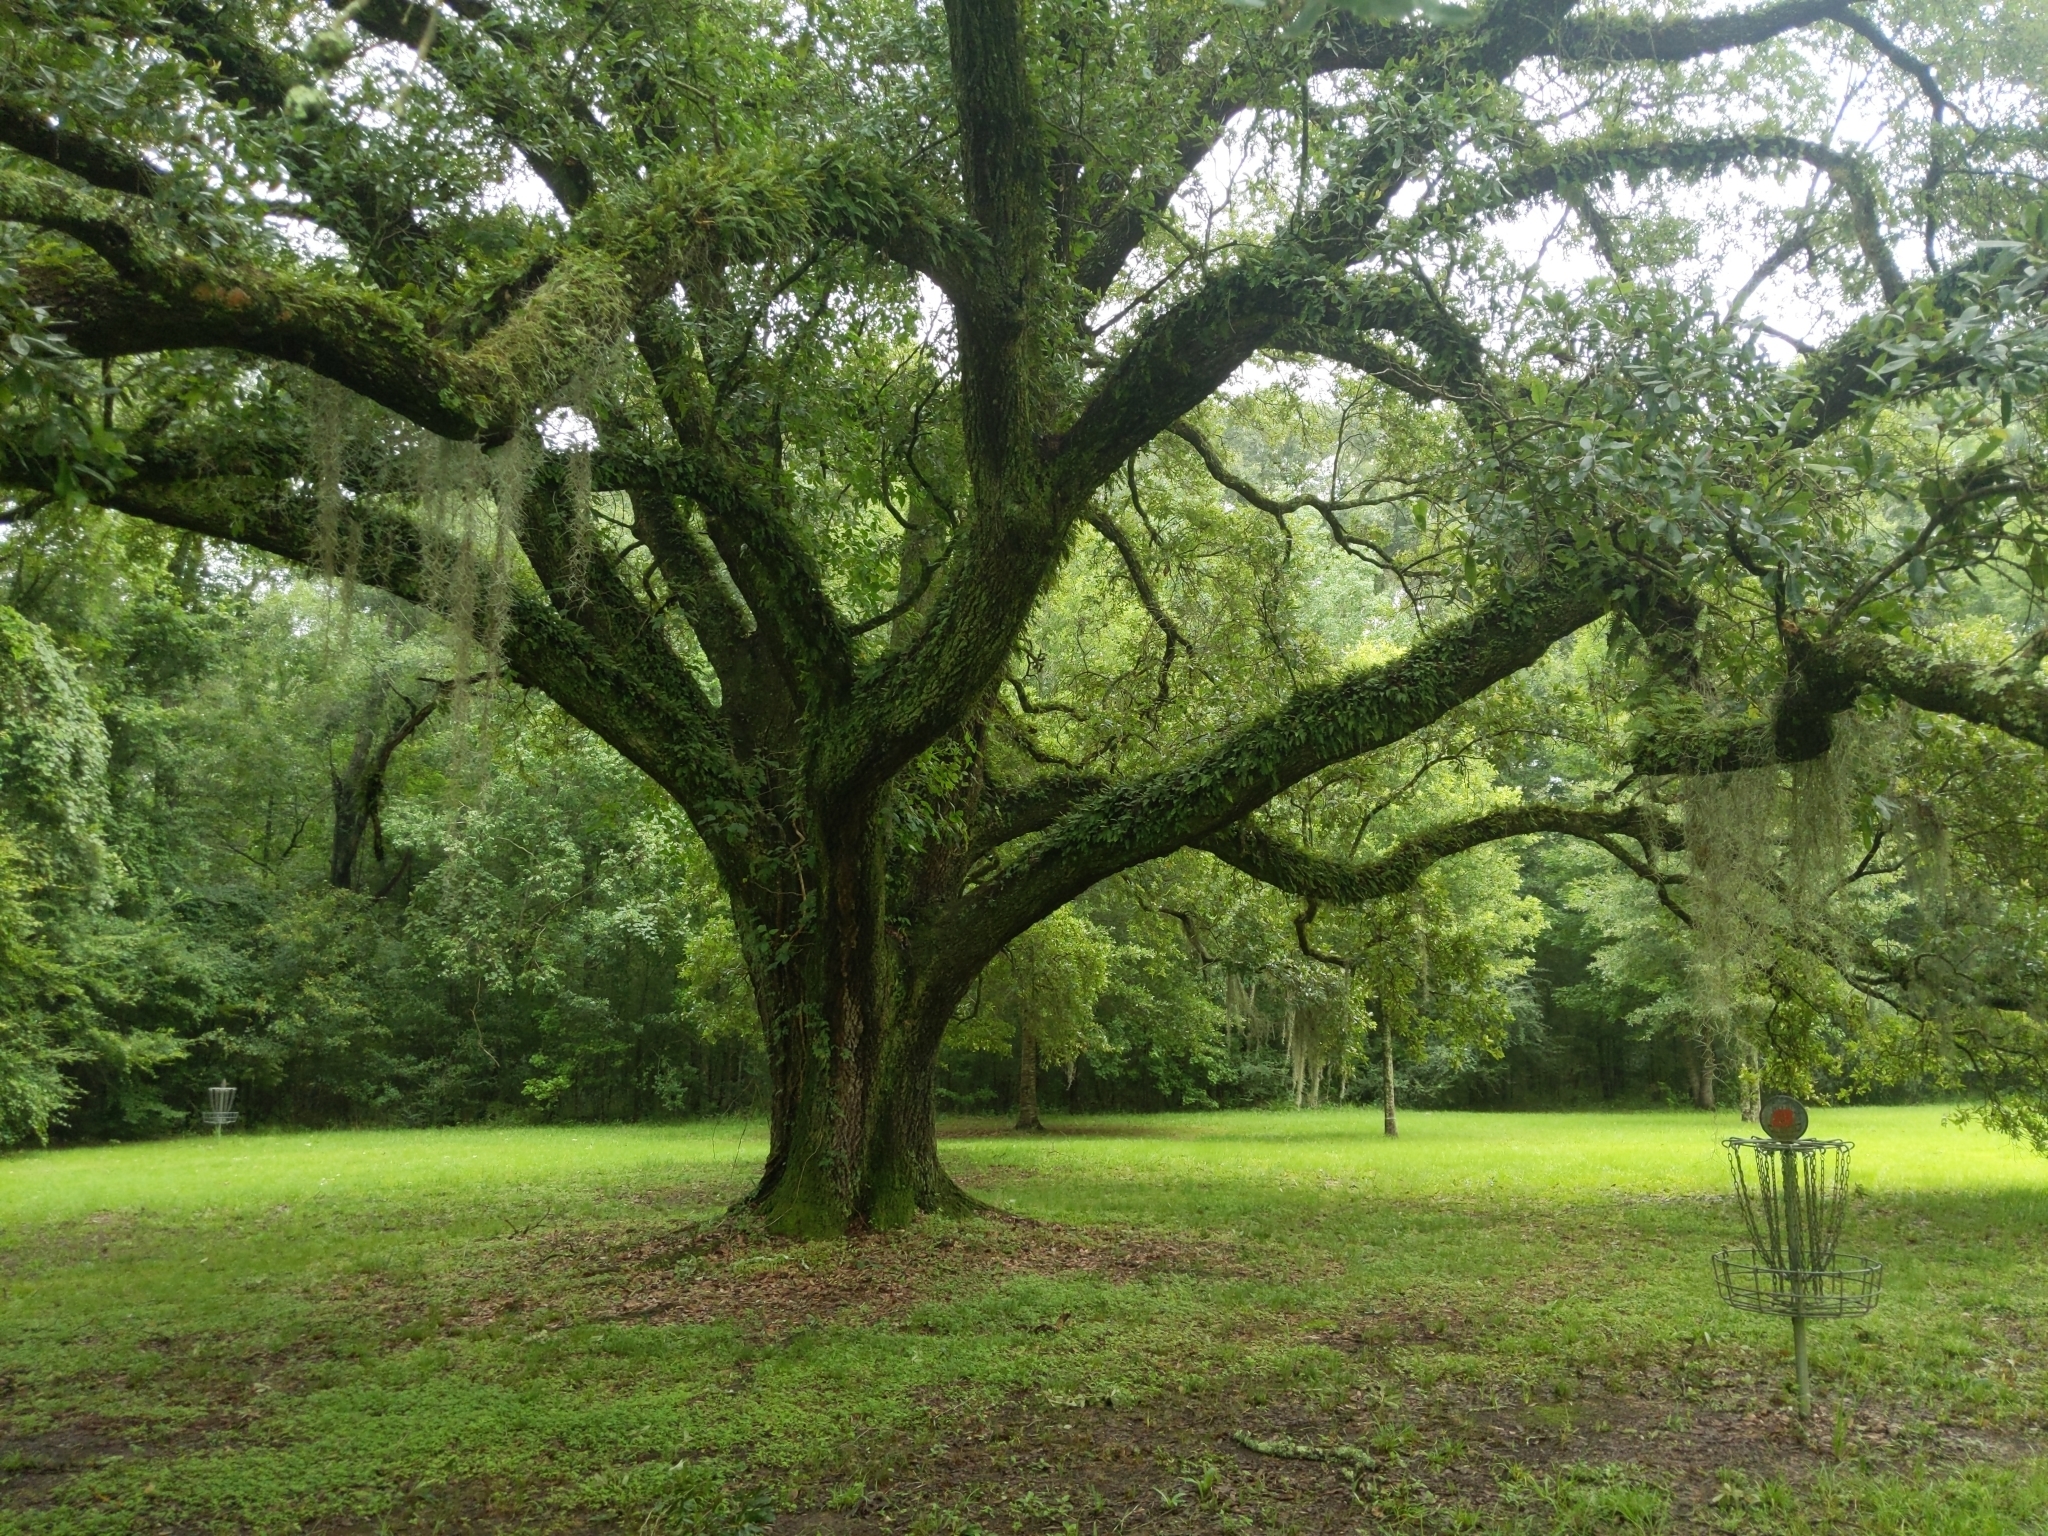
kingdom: Plantae
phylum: Tracheophyta
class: Magnoliopsida
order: Fagales
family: Fagaceae
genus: Quercus
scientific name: Quercus virginiana
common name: Southern live oak
